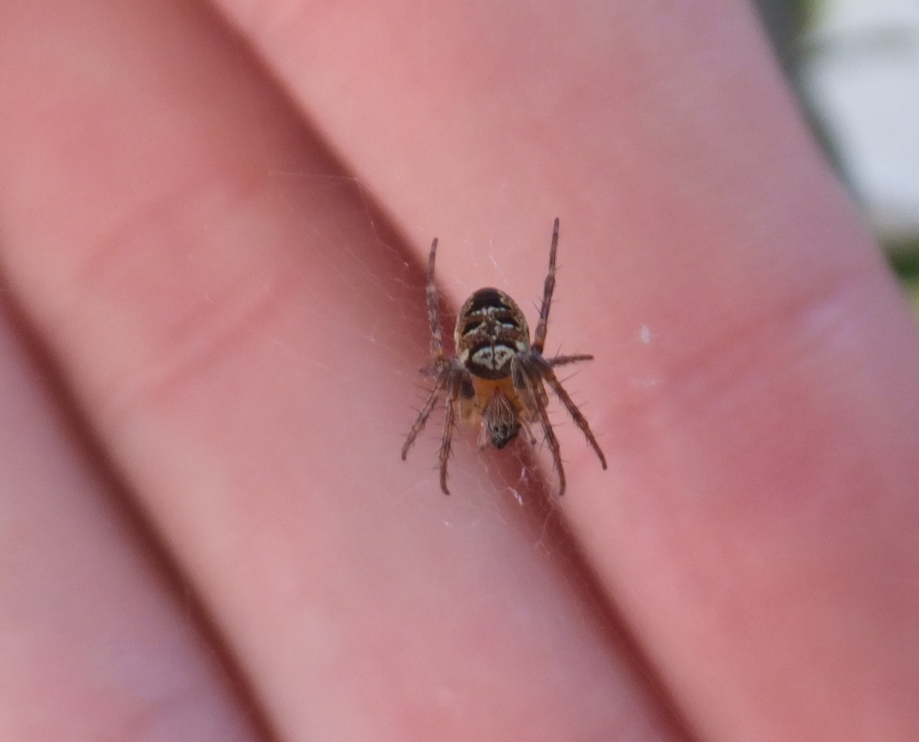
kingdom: Animalia
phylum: Arthropoda
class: Arachnida
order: Araneae
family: Araneidae
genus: Zilla
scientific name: Zilla diodia
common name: Zilla diodia
